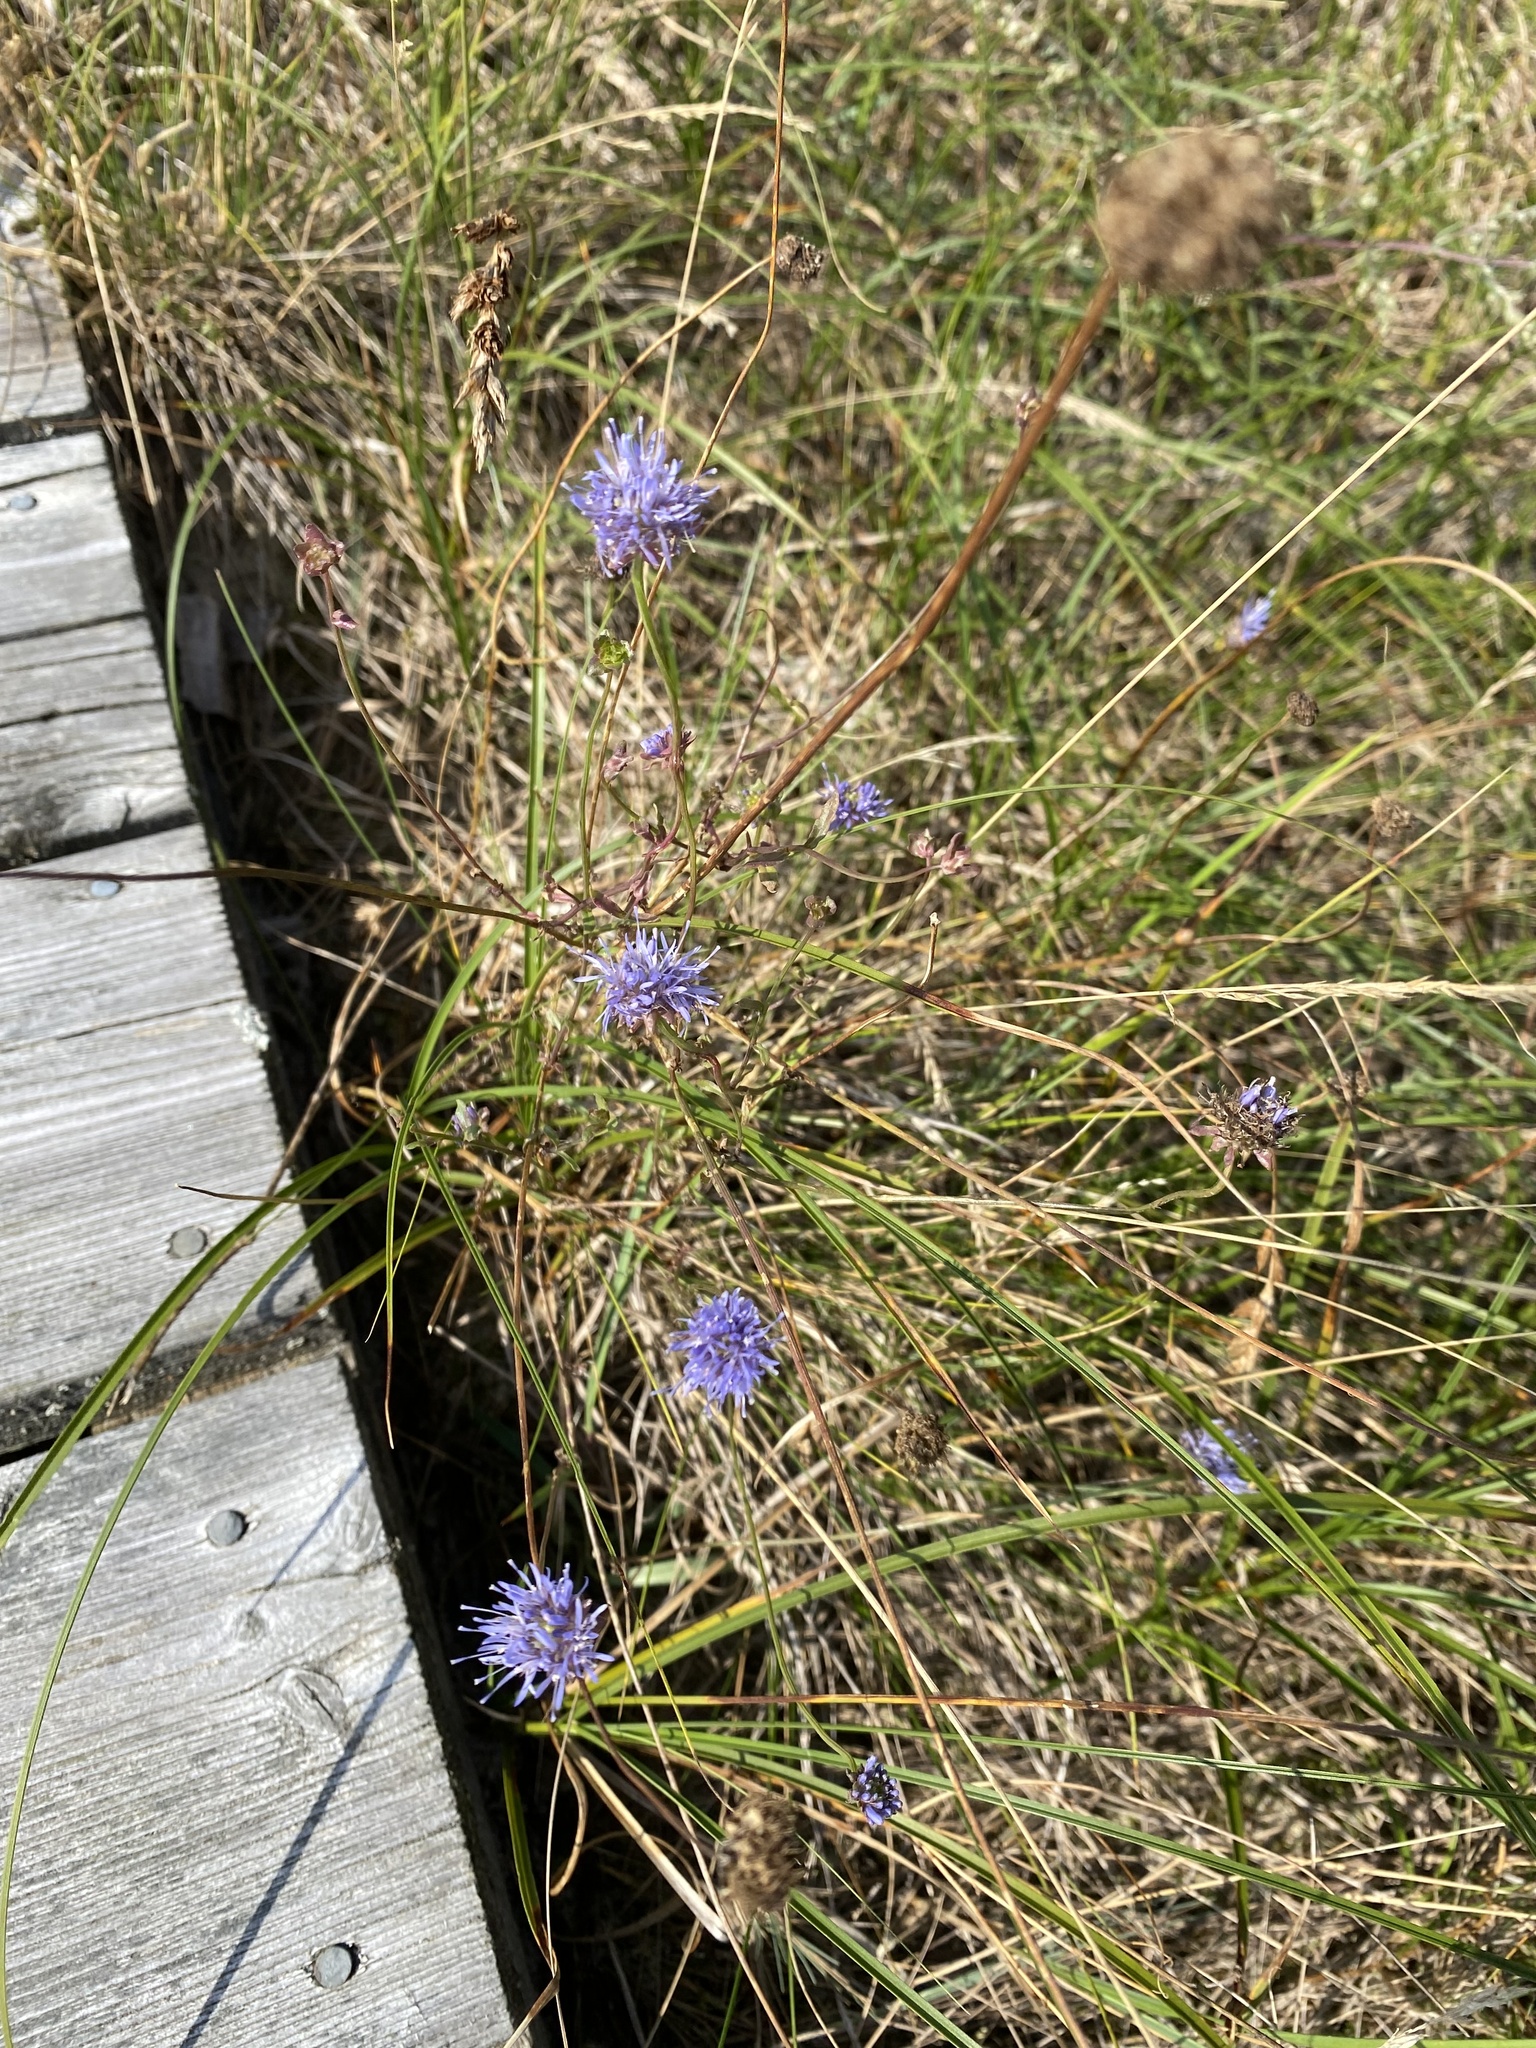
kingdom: Plantae
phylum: Tracheophyta
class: Magnoliopsida
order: Asterales
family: Campanulaceae
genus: Jasione
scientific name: Jasione montana
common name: Sheep's-bit
